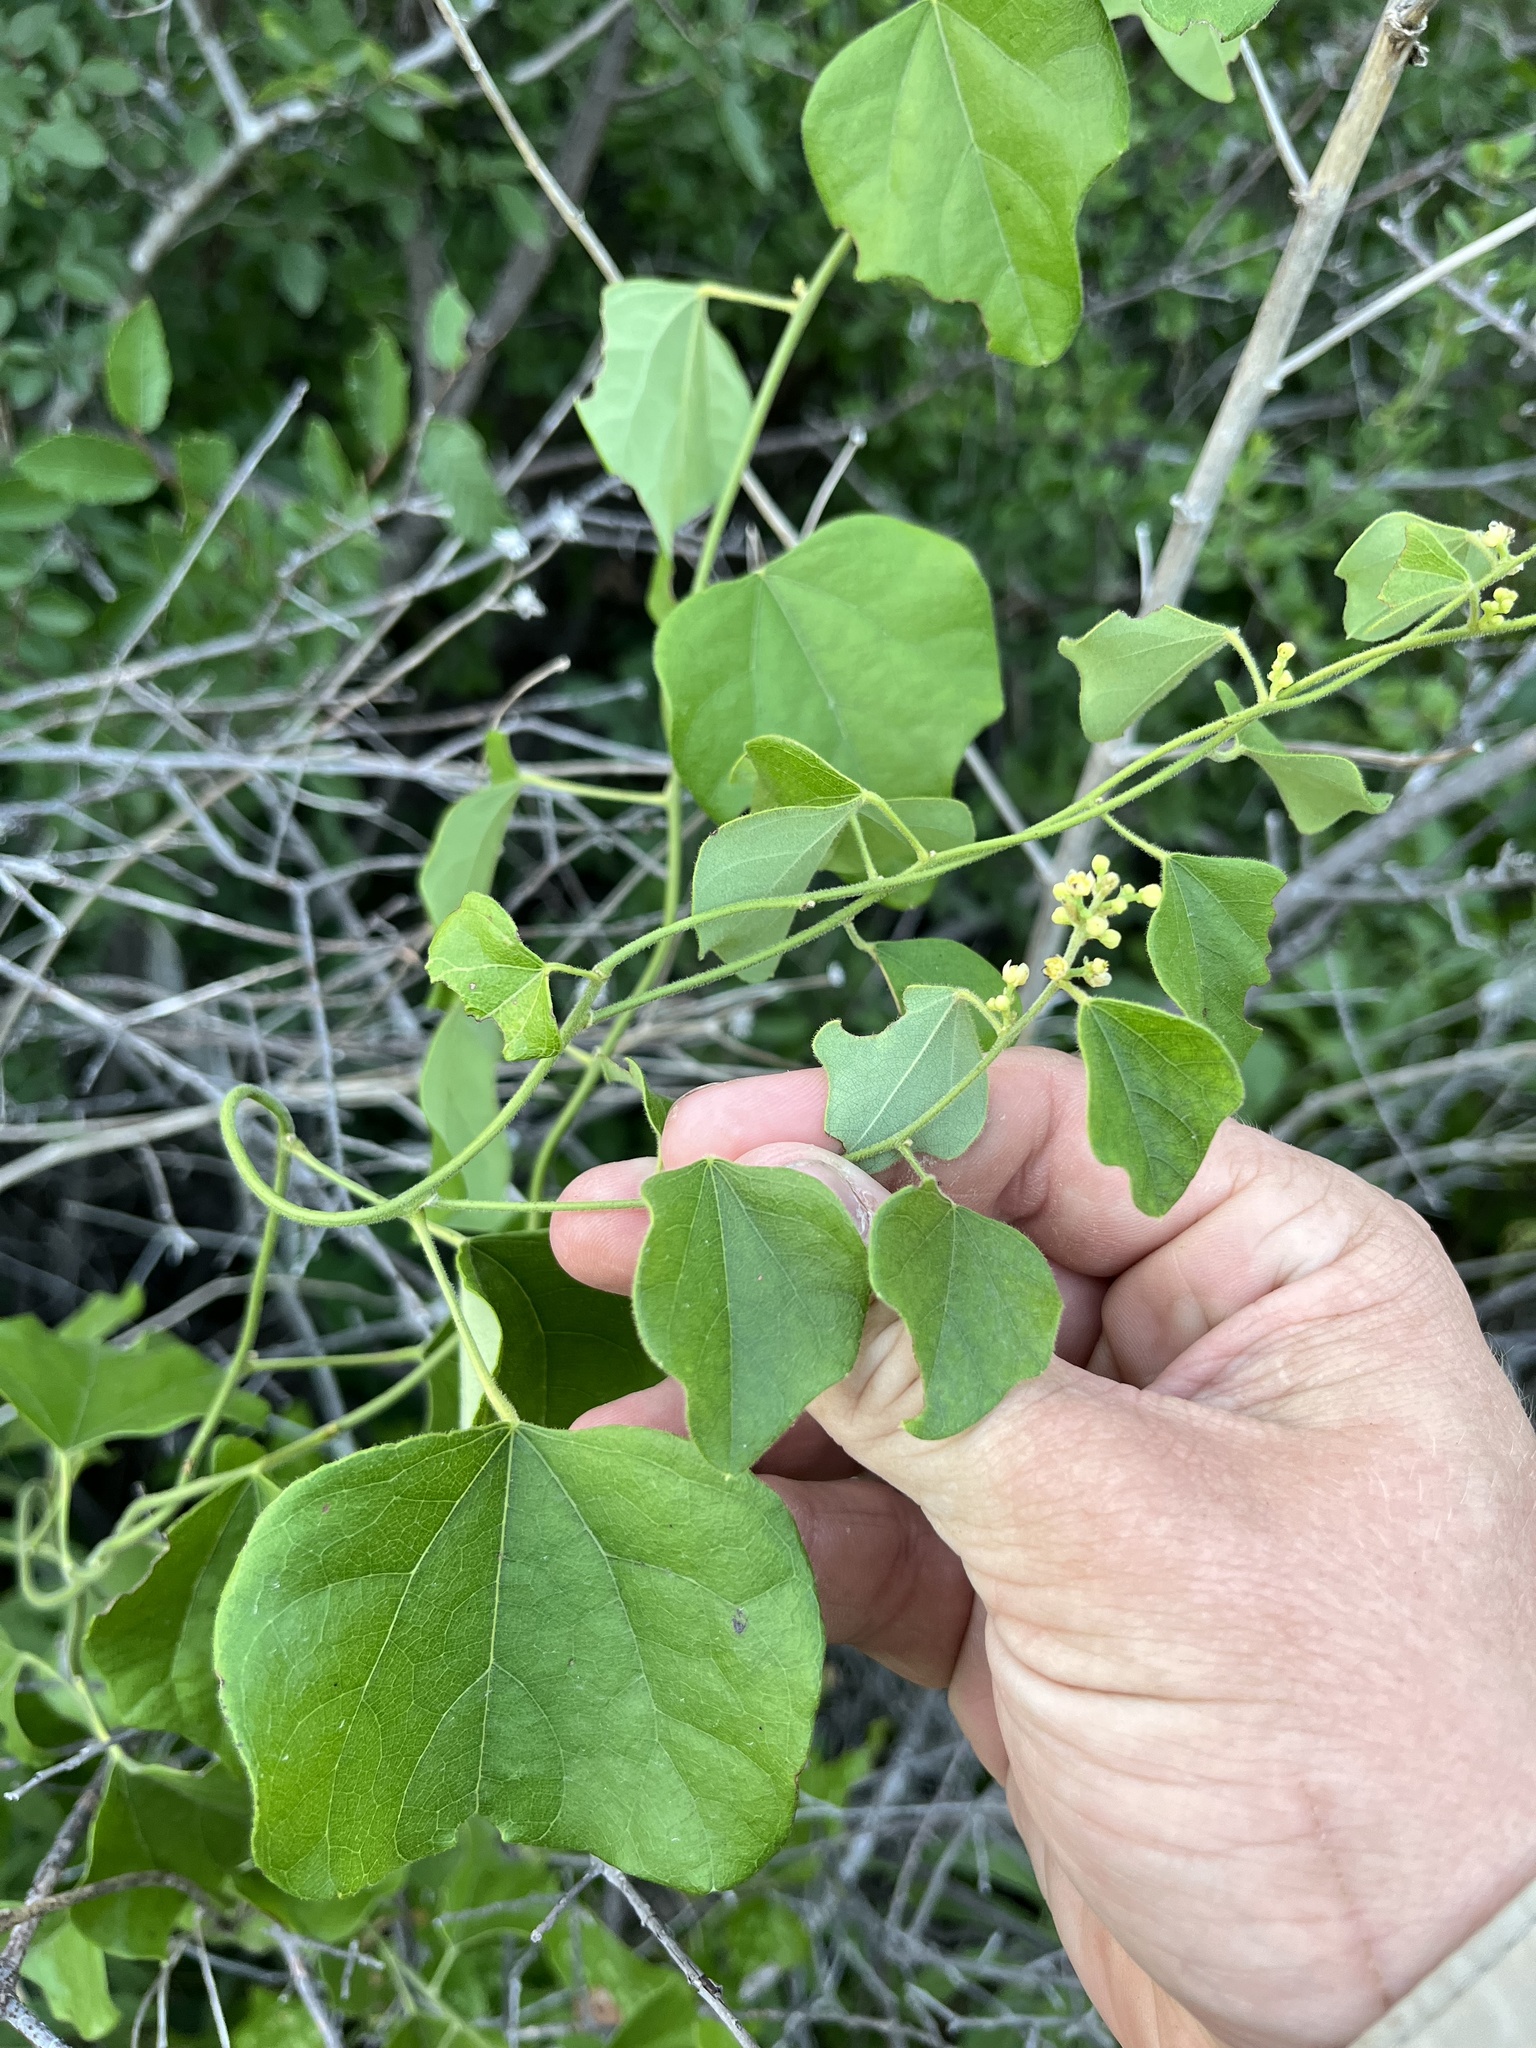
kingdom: Plantae
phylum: Tracheophyta
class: Magnoliopsida
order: Ranunculales
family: Menispermaceae
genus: Cocculus
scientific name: Cocculus carolinus
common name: Carolina moonseed
